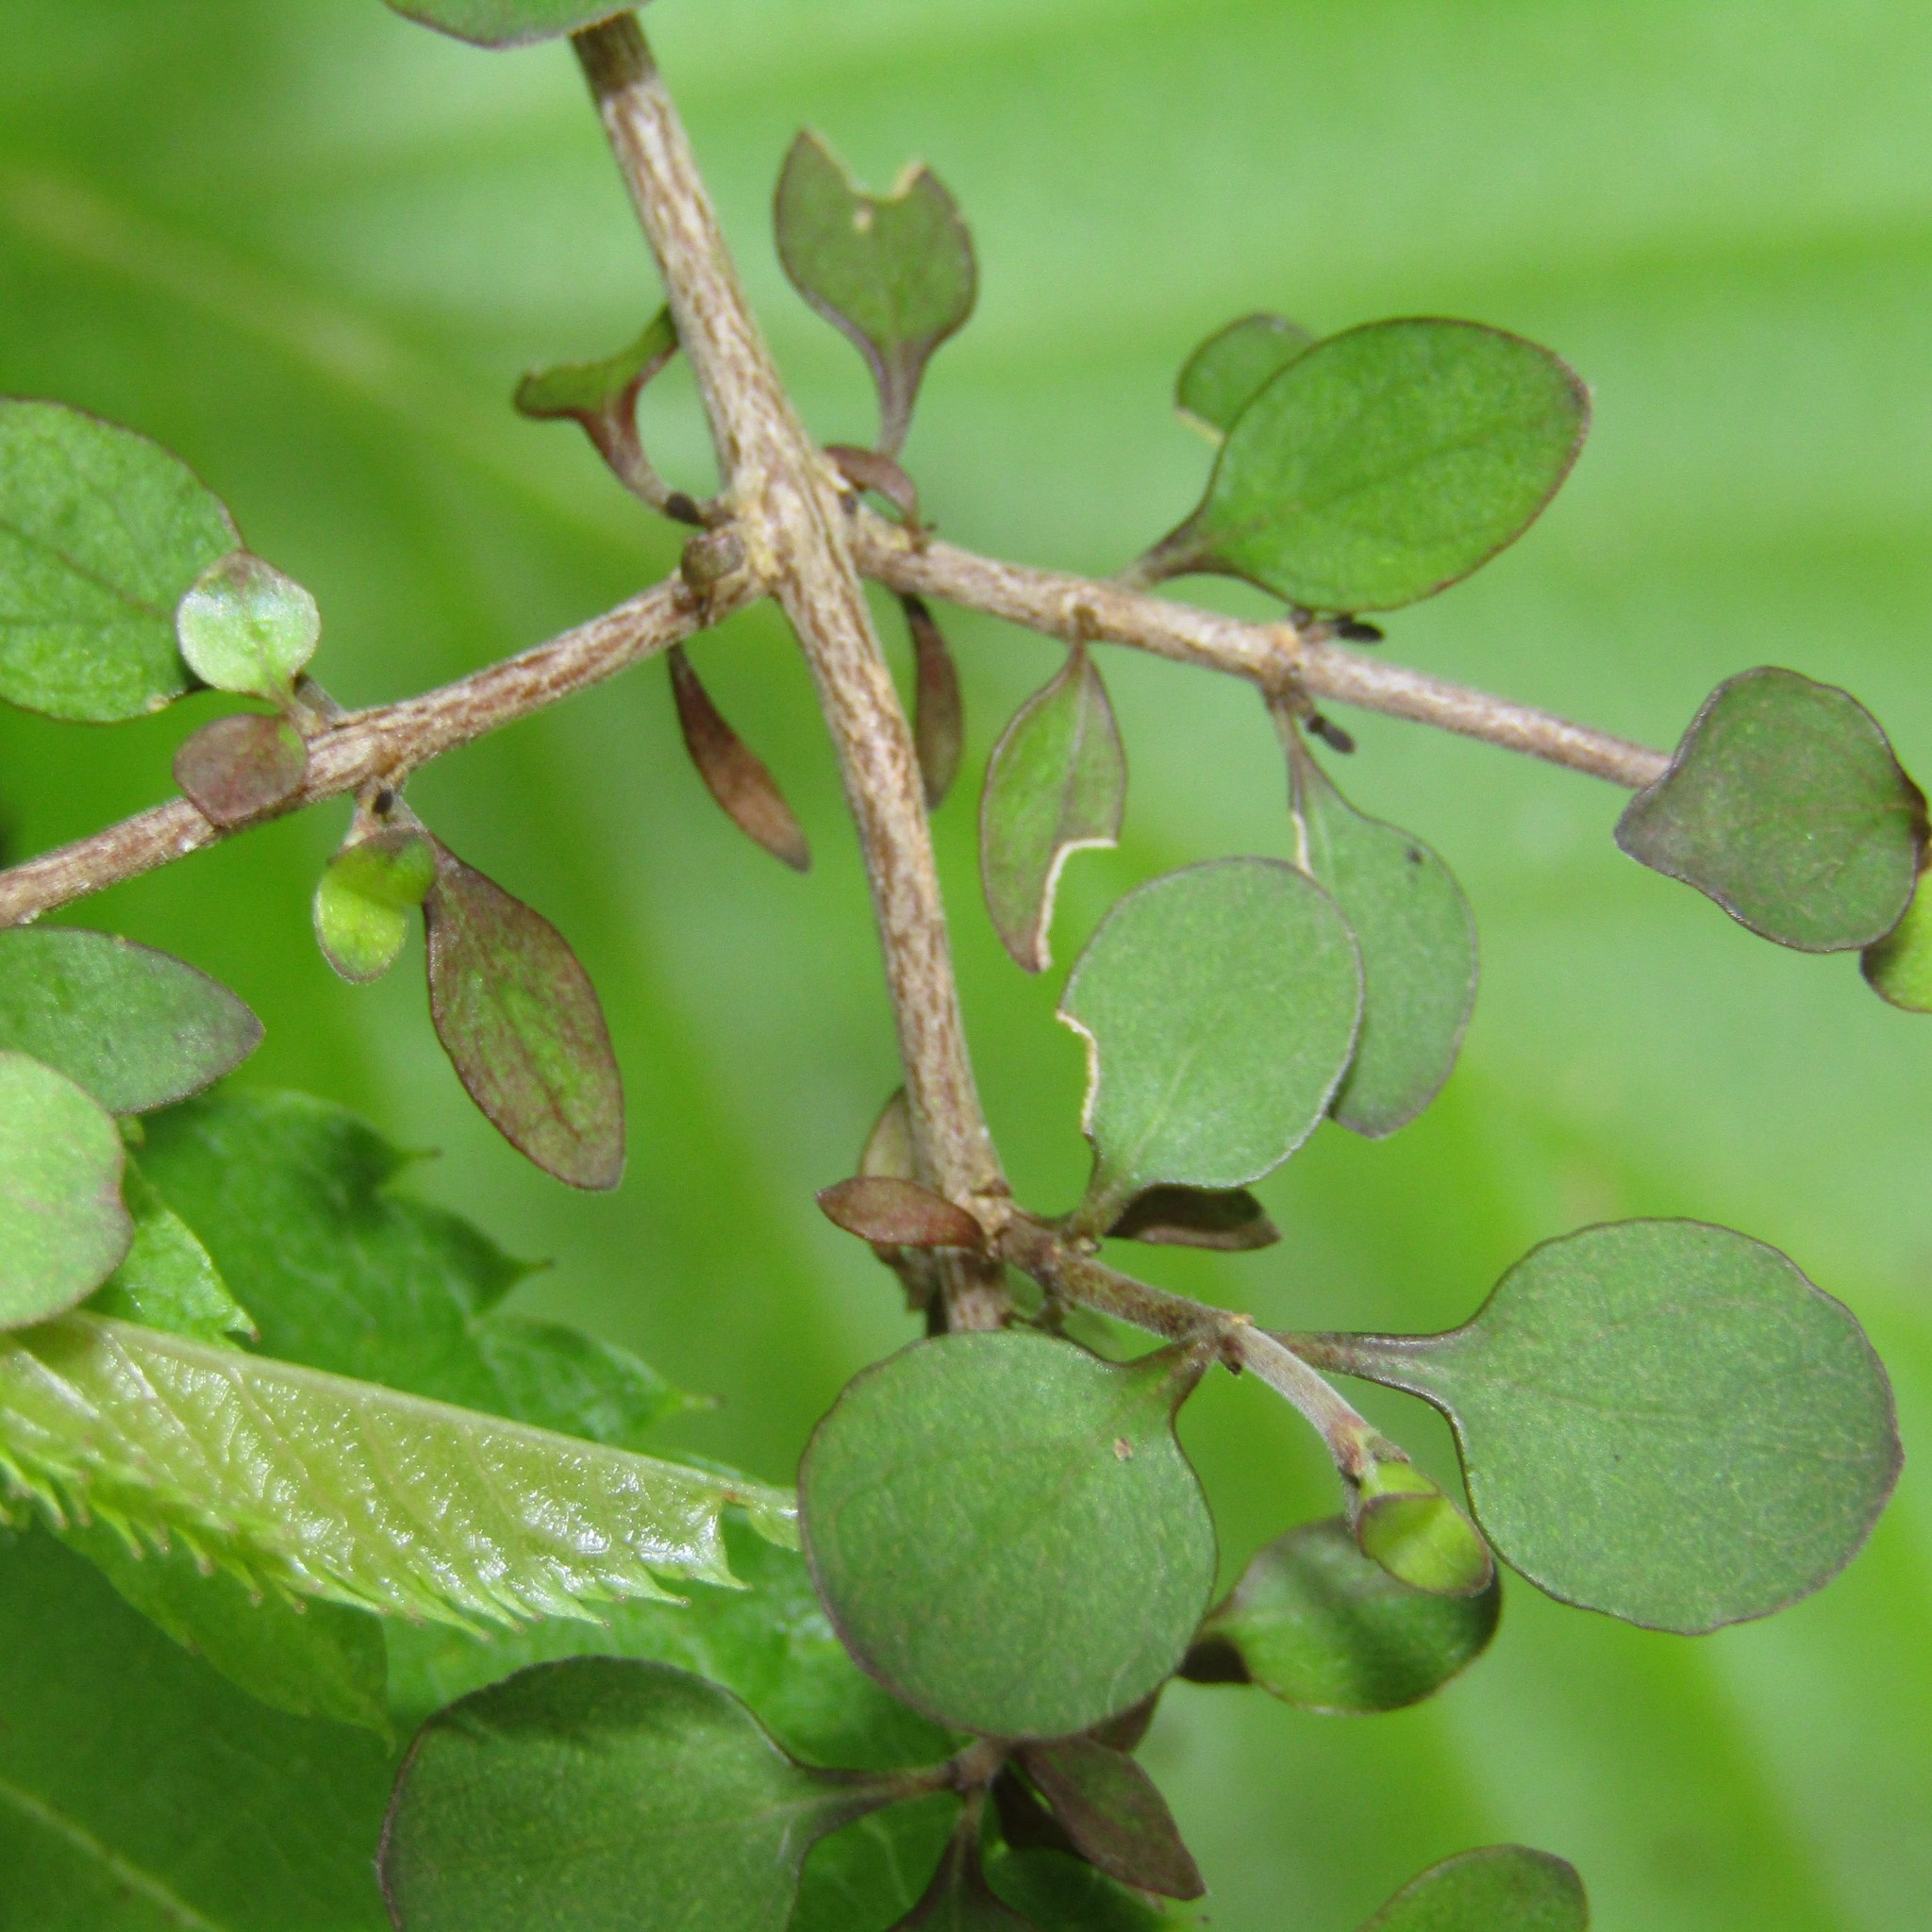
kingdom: Plantae
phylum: Tracheophyta
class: Magnoliopsida
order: Gentianales
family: Rubiaceae
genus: Coprosma
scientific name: Coprosma rhamnoides
